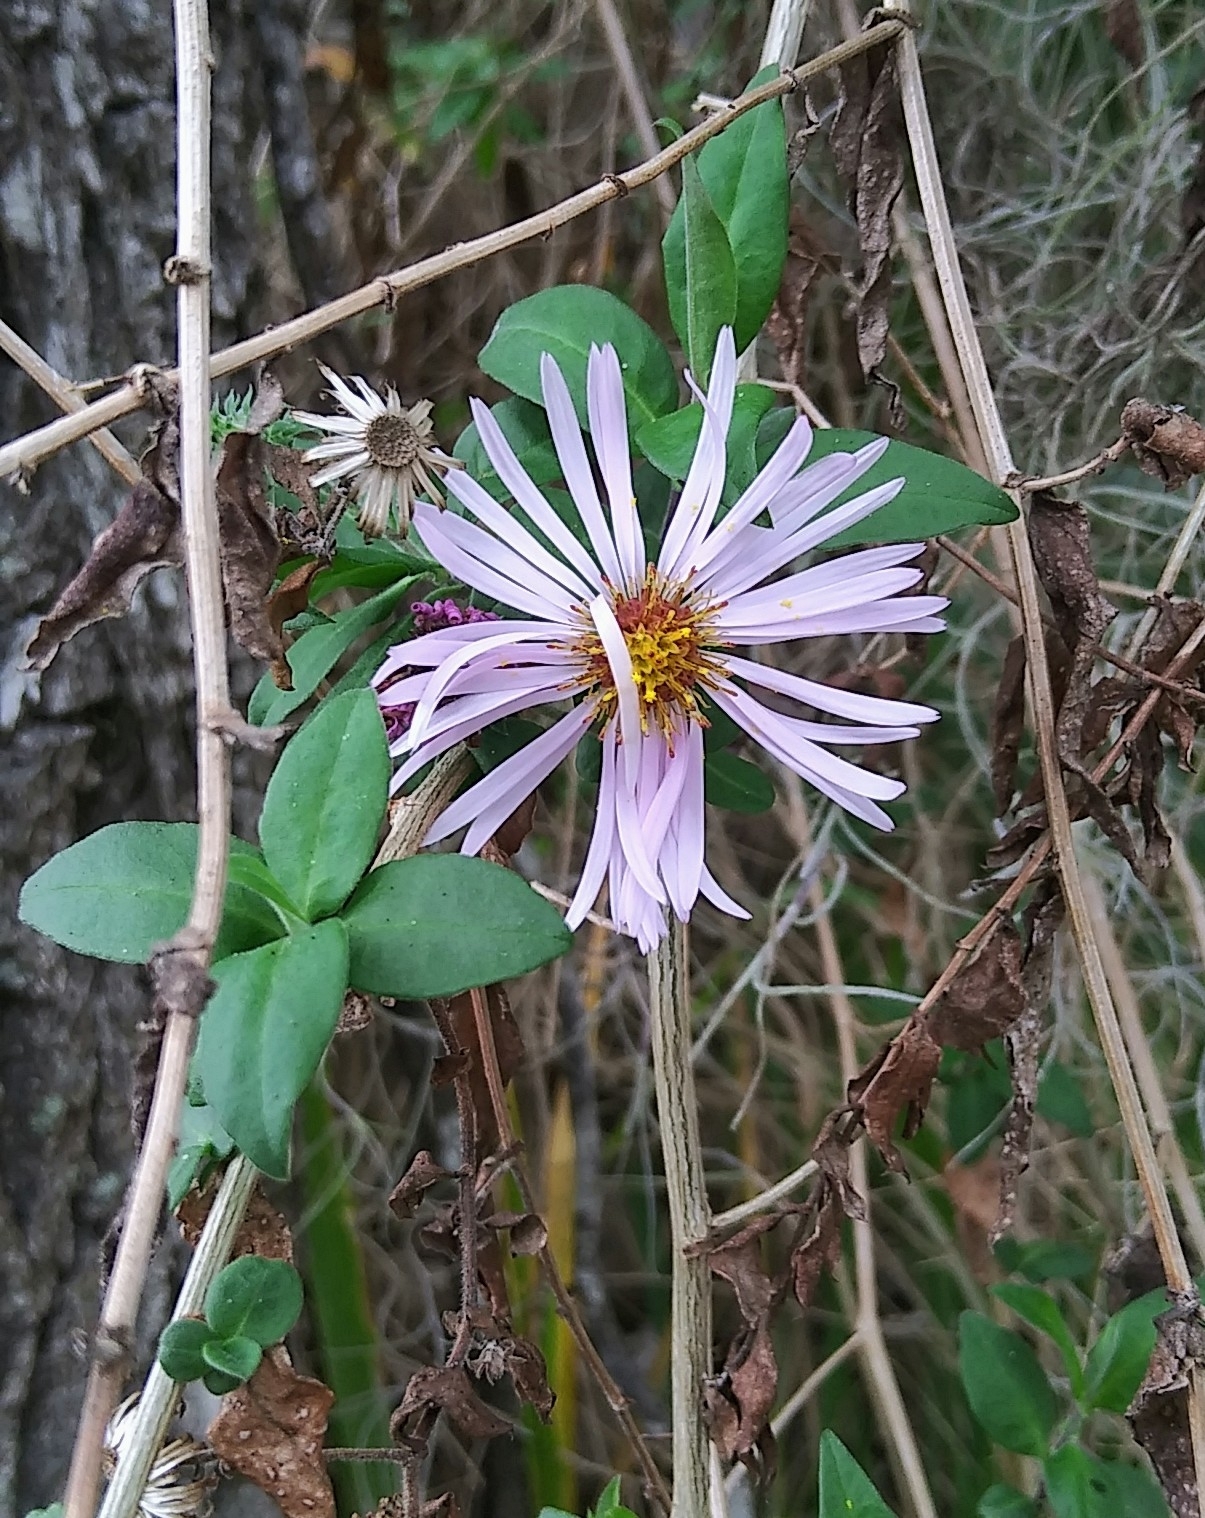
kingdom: Plantae
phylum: Tracheophyta
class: Magnoliopsida
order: Asterales
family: Asteraceae
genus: Ampelaster
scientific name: Ampelaster carolinianus
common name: Climbing aster
